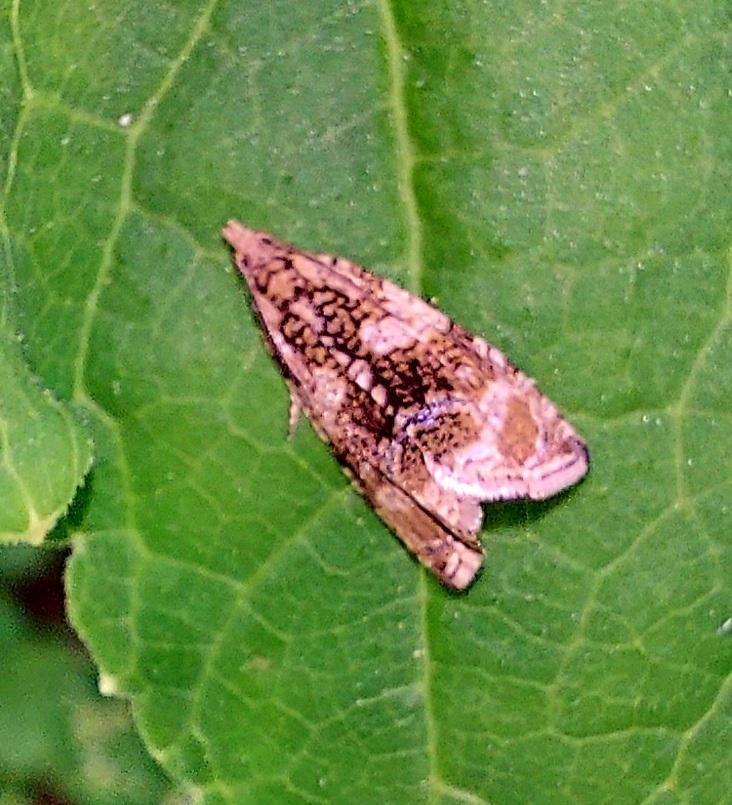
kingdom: Animalia
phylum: Arthropoda
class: Insecta
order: Lepidoptera
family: Tortricidae
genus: Syricoris
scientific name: Syricoris lacunana
